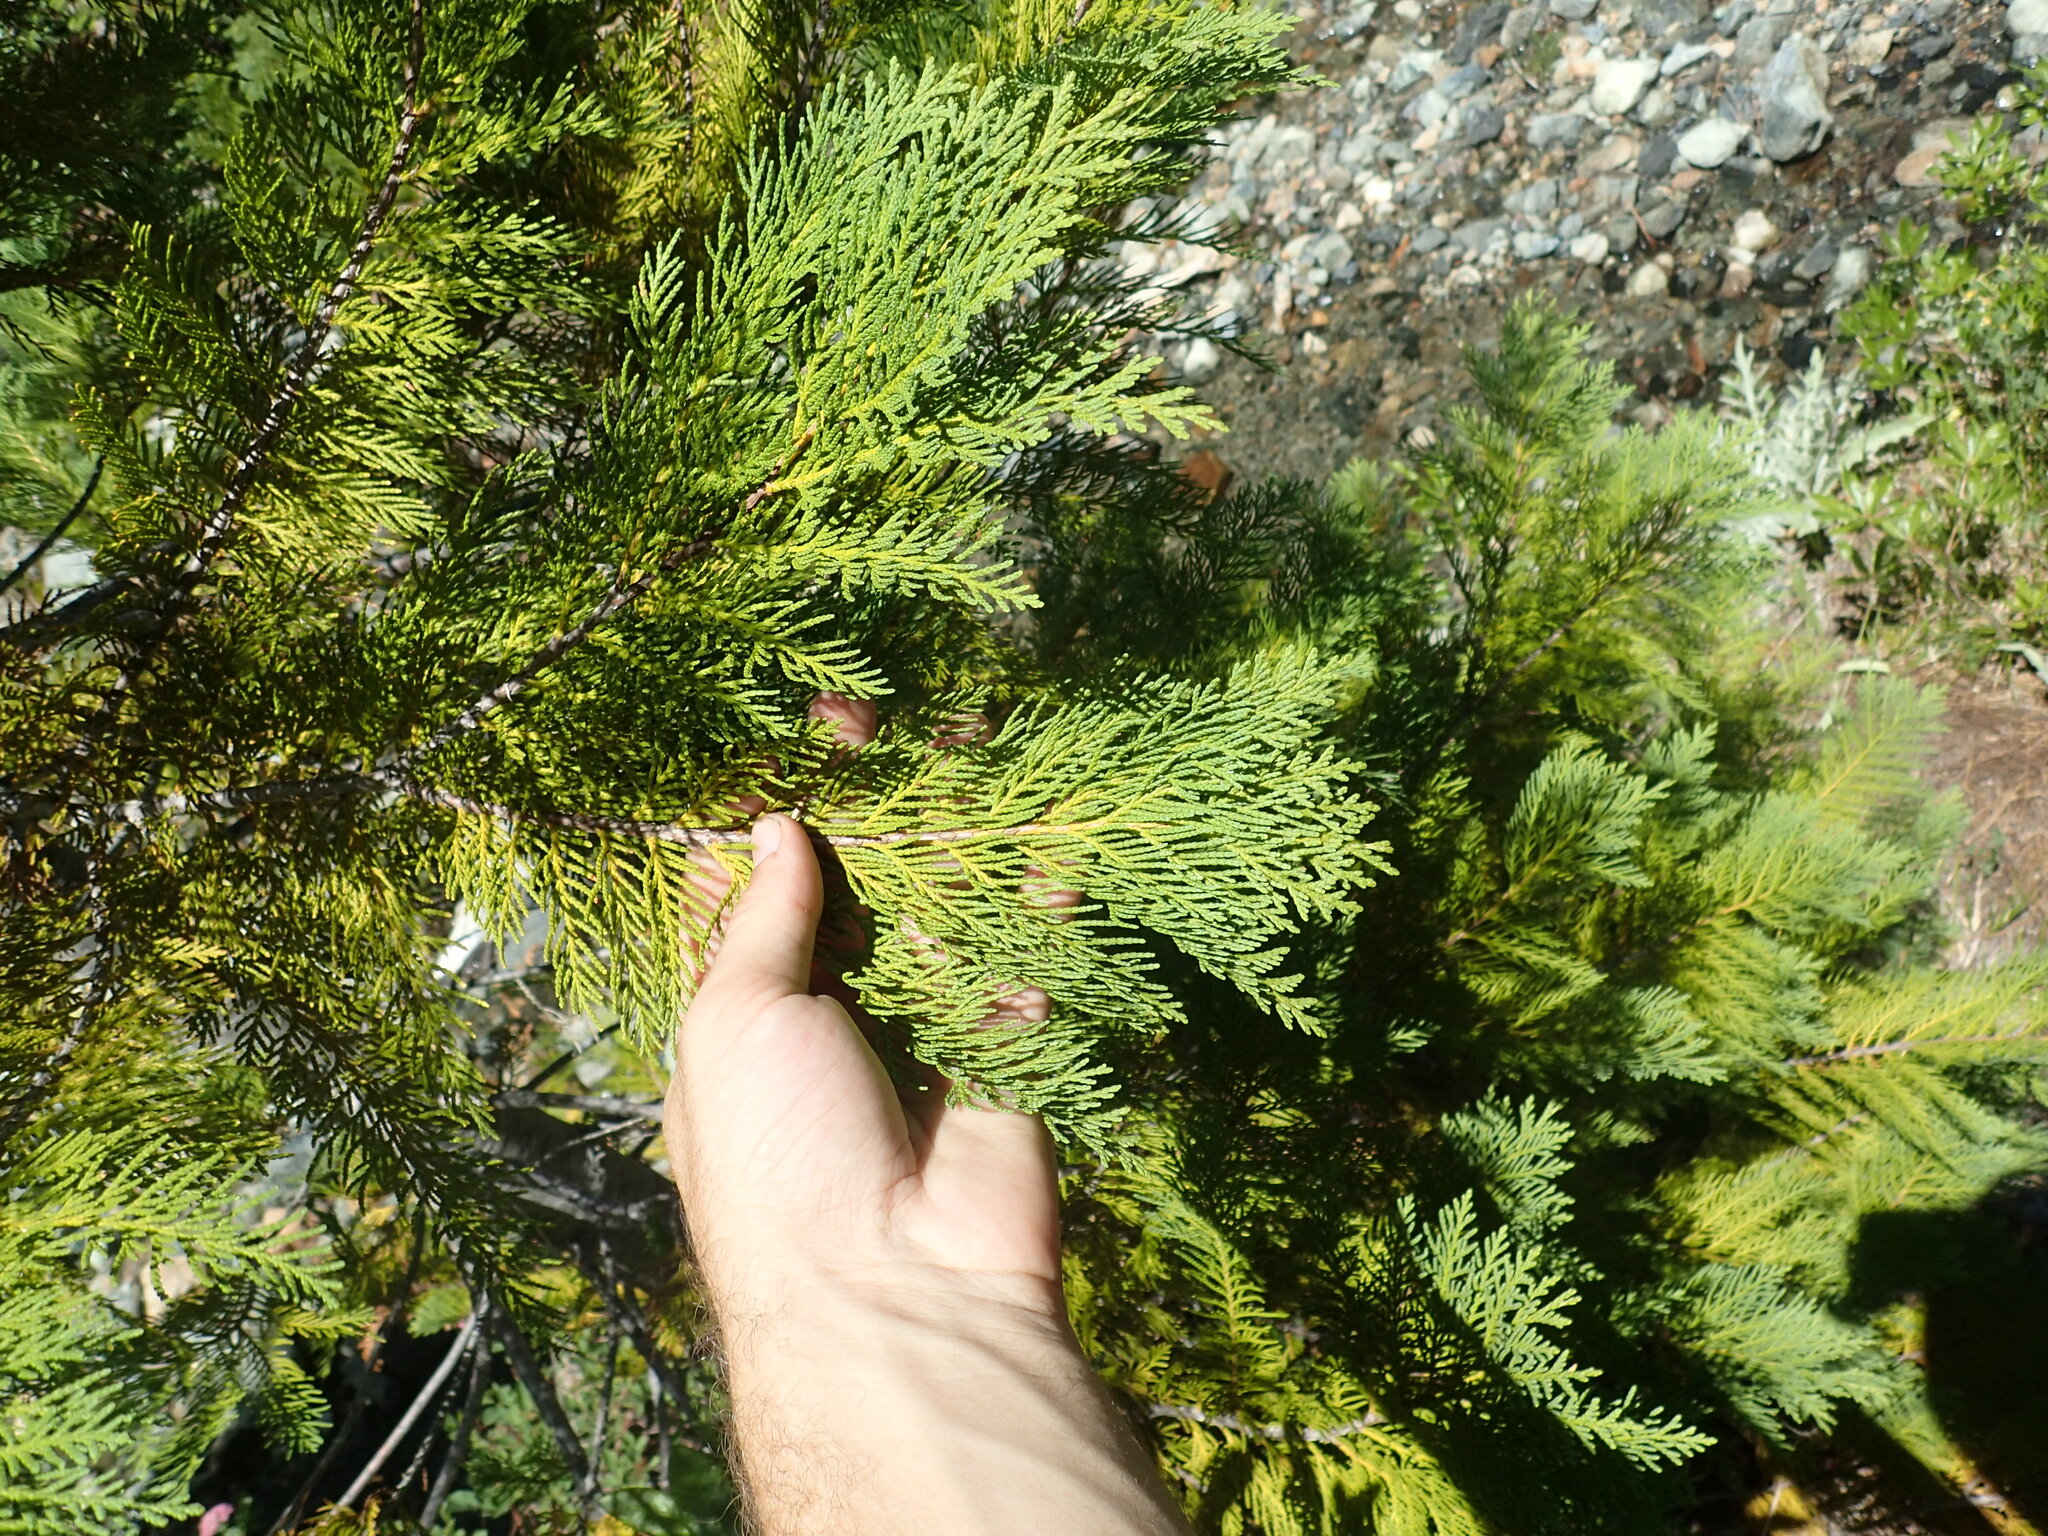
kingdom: Plantae
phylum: Tracheophyta
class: Pinopsida
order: Pinales
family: Cupressaceae
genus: Chamaecyparis
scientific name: Chamaecyparis lawsoniana
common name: Lawson's cypress
